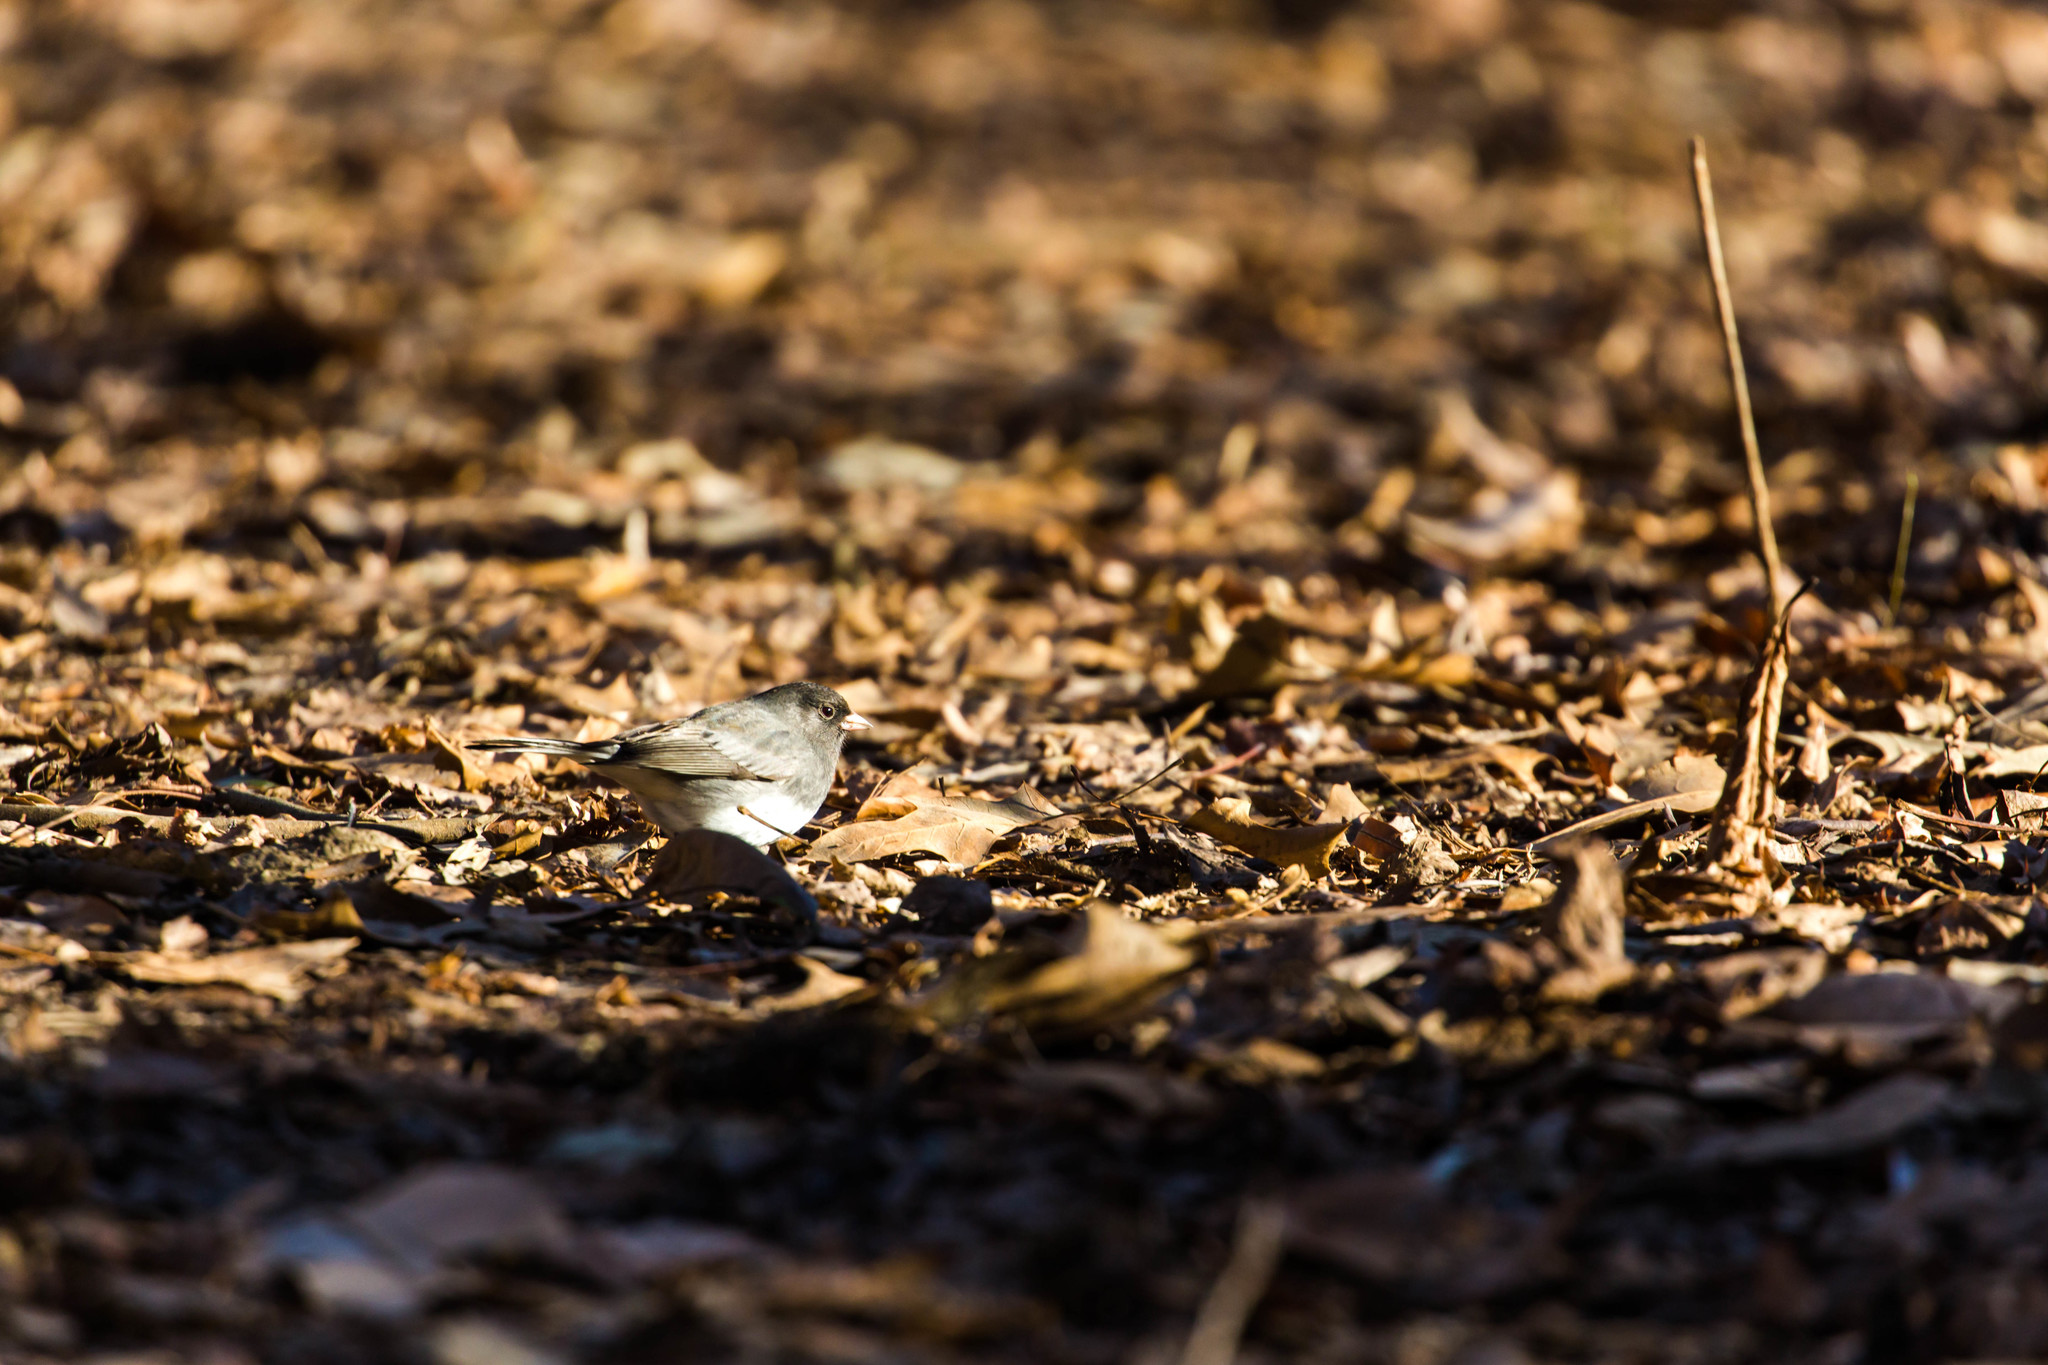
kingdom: Animalia
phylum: Chordata
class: Aves
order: Passeriformes
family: Passerellidae
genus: Junco
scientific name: Junco hyemalis
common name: Dark-eyed junco
